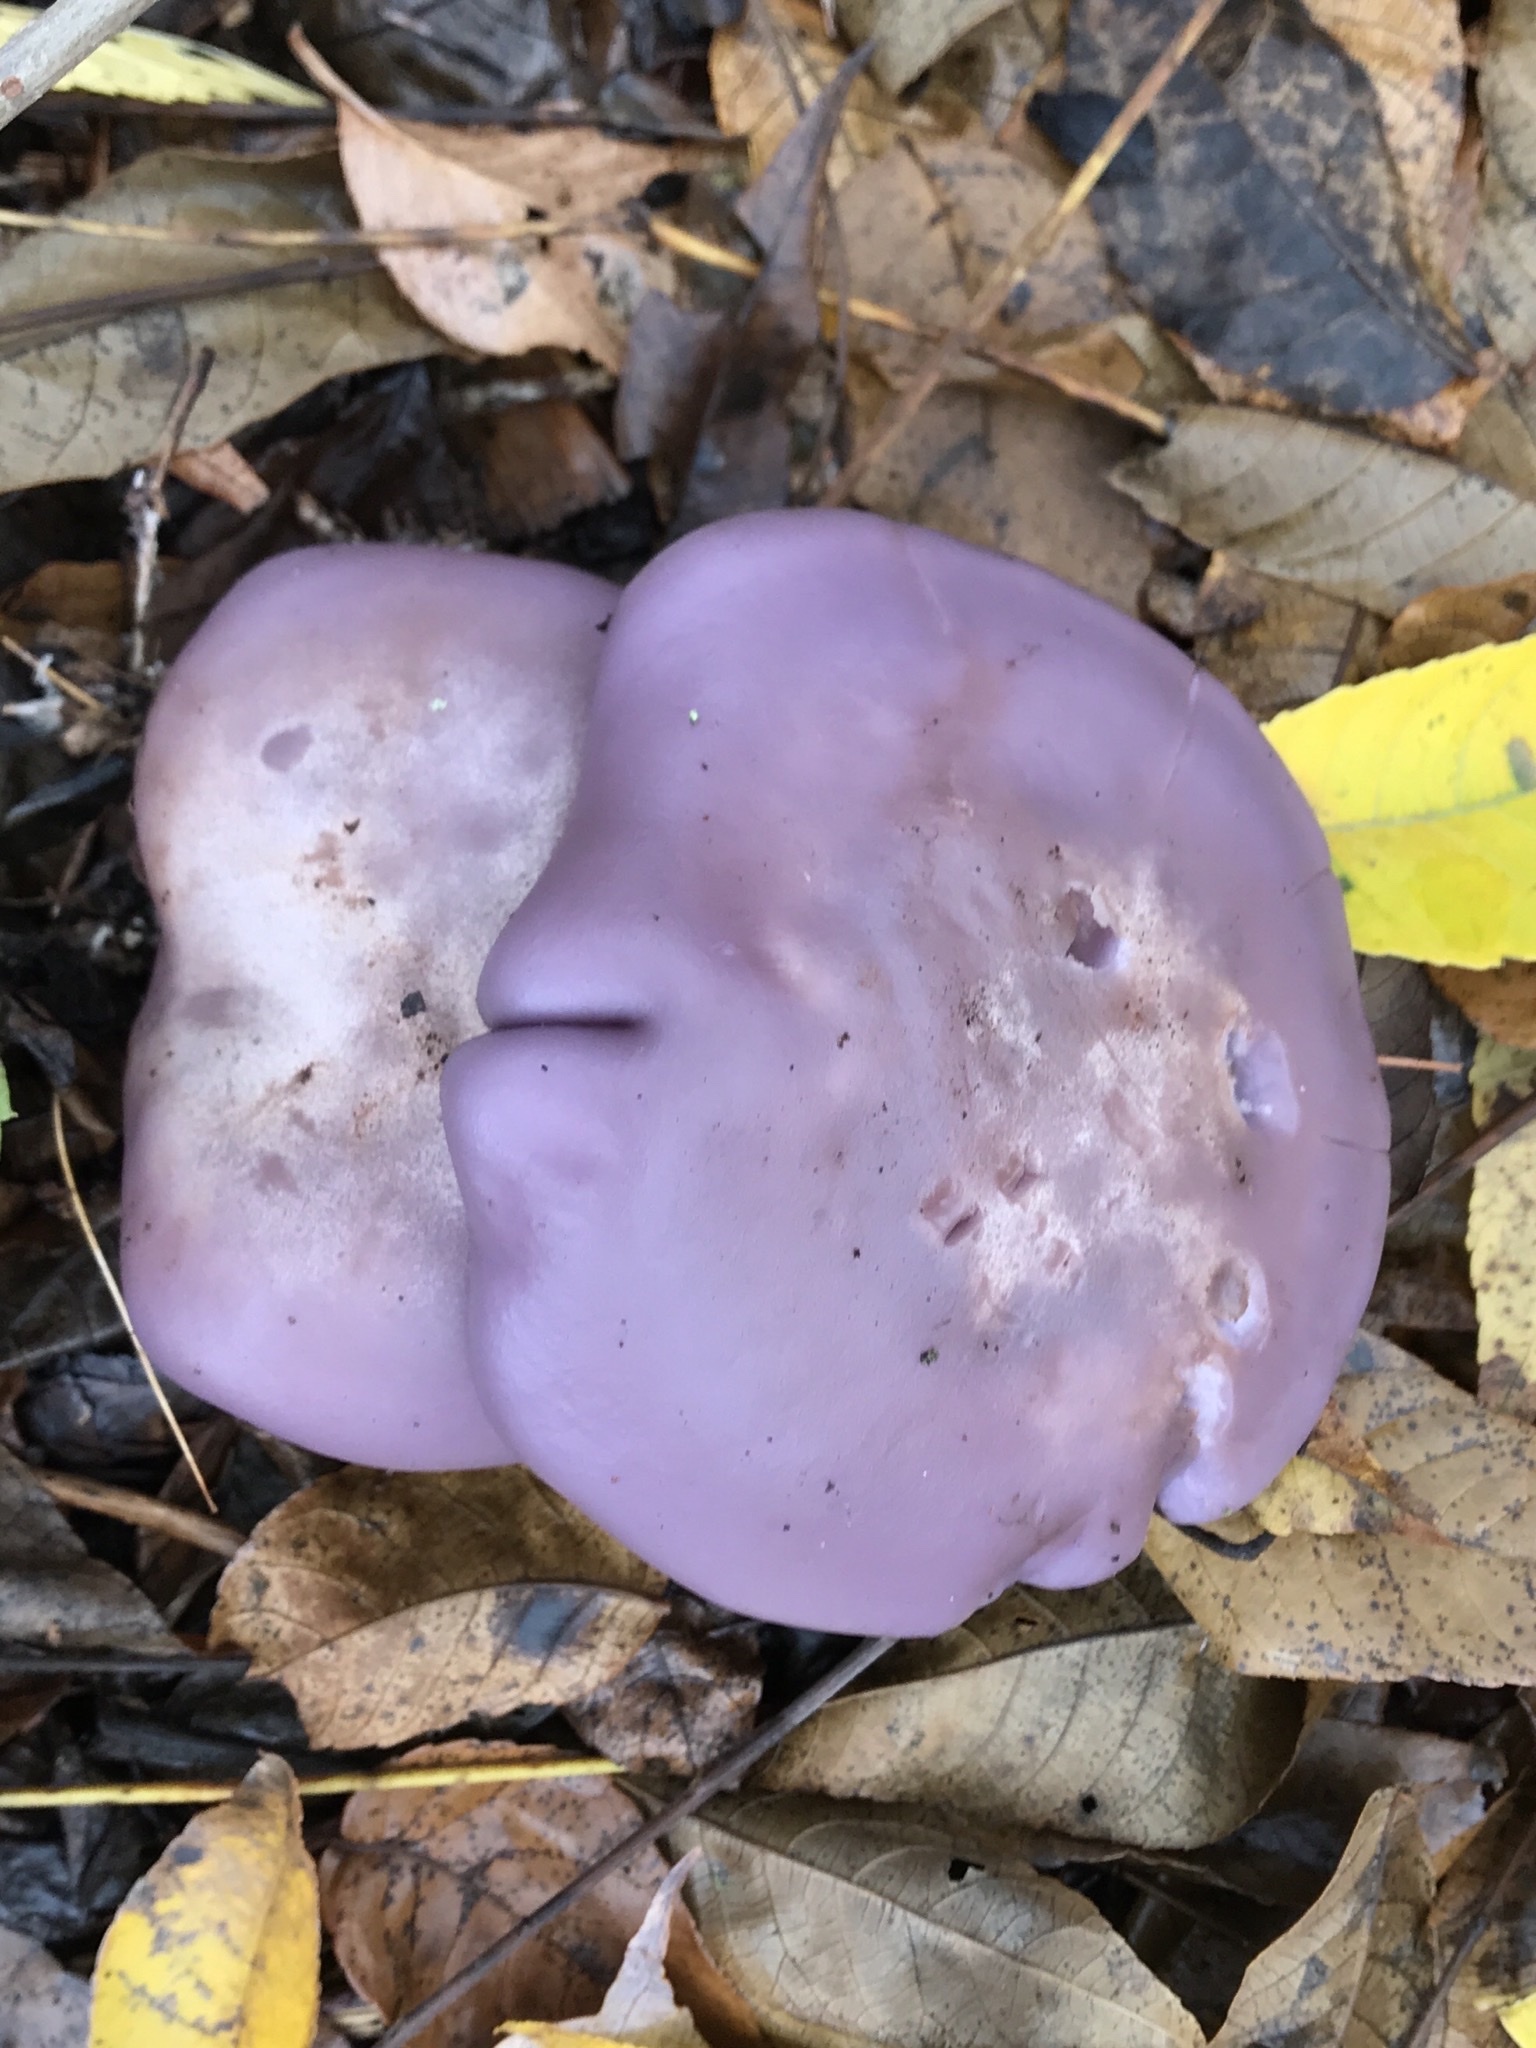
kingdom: Fungi
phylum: Basidiomycota
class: Agaricomycetes
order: Agaricales
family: Tricholomataceae
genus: Collybia
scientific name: Collybia
